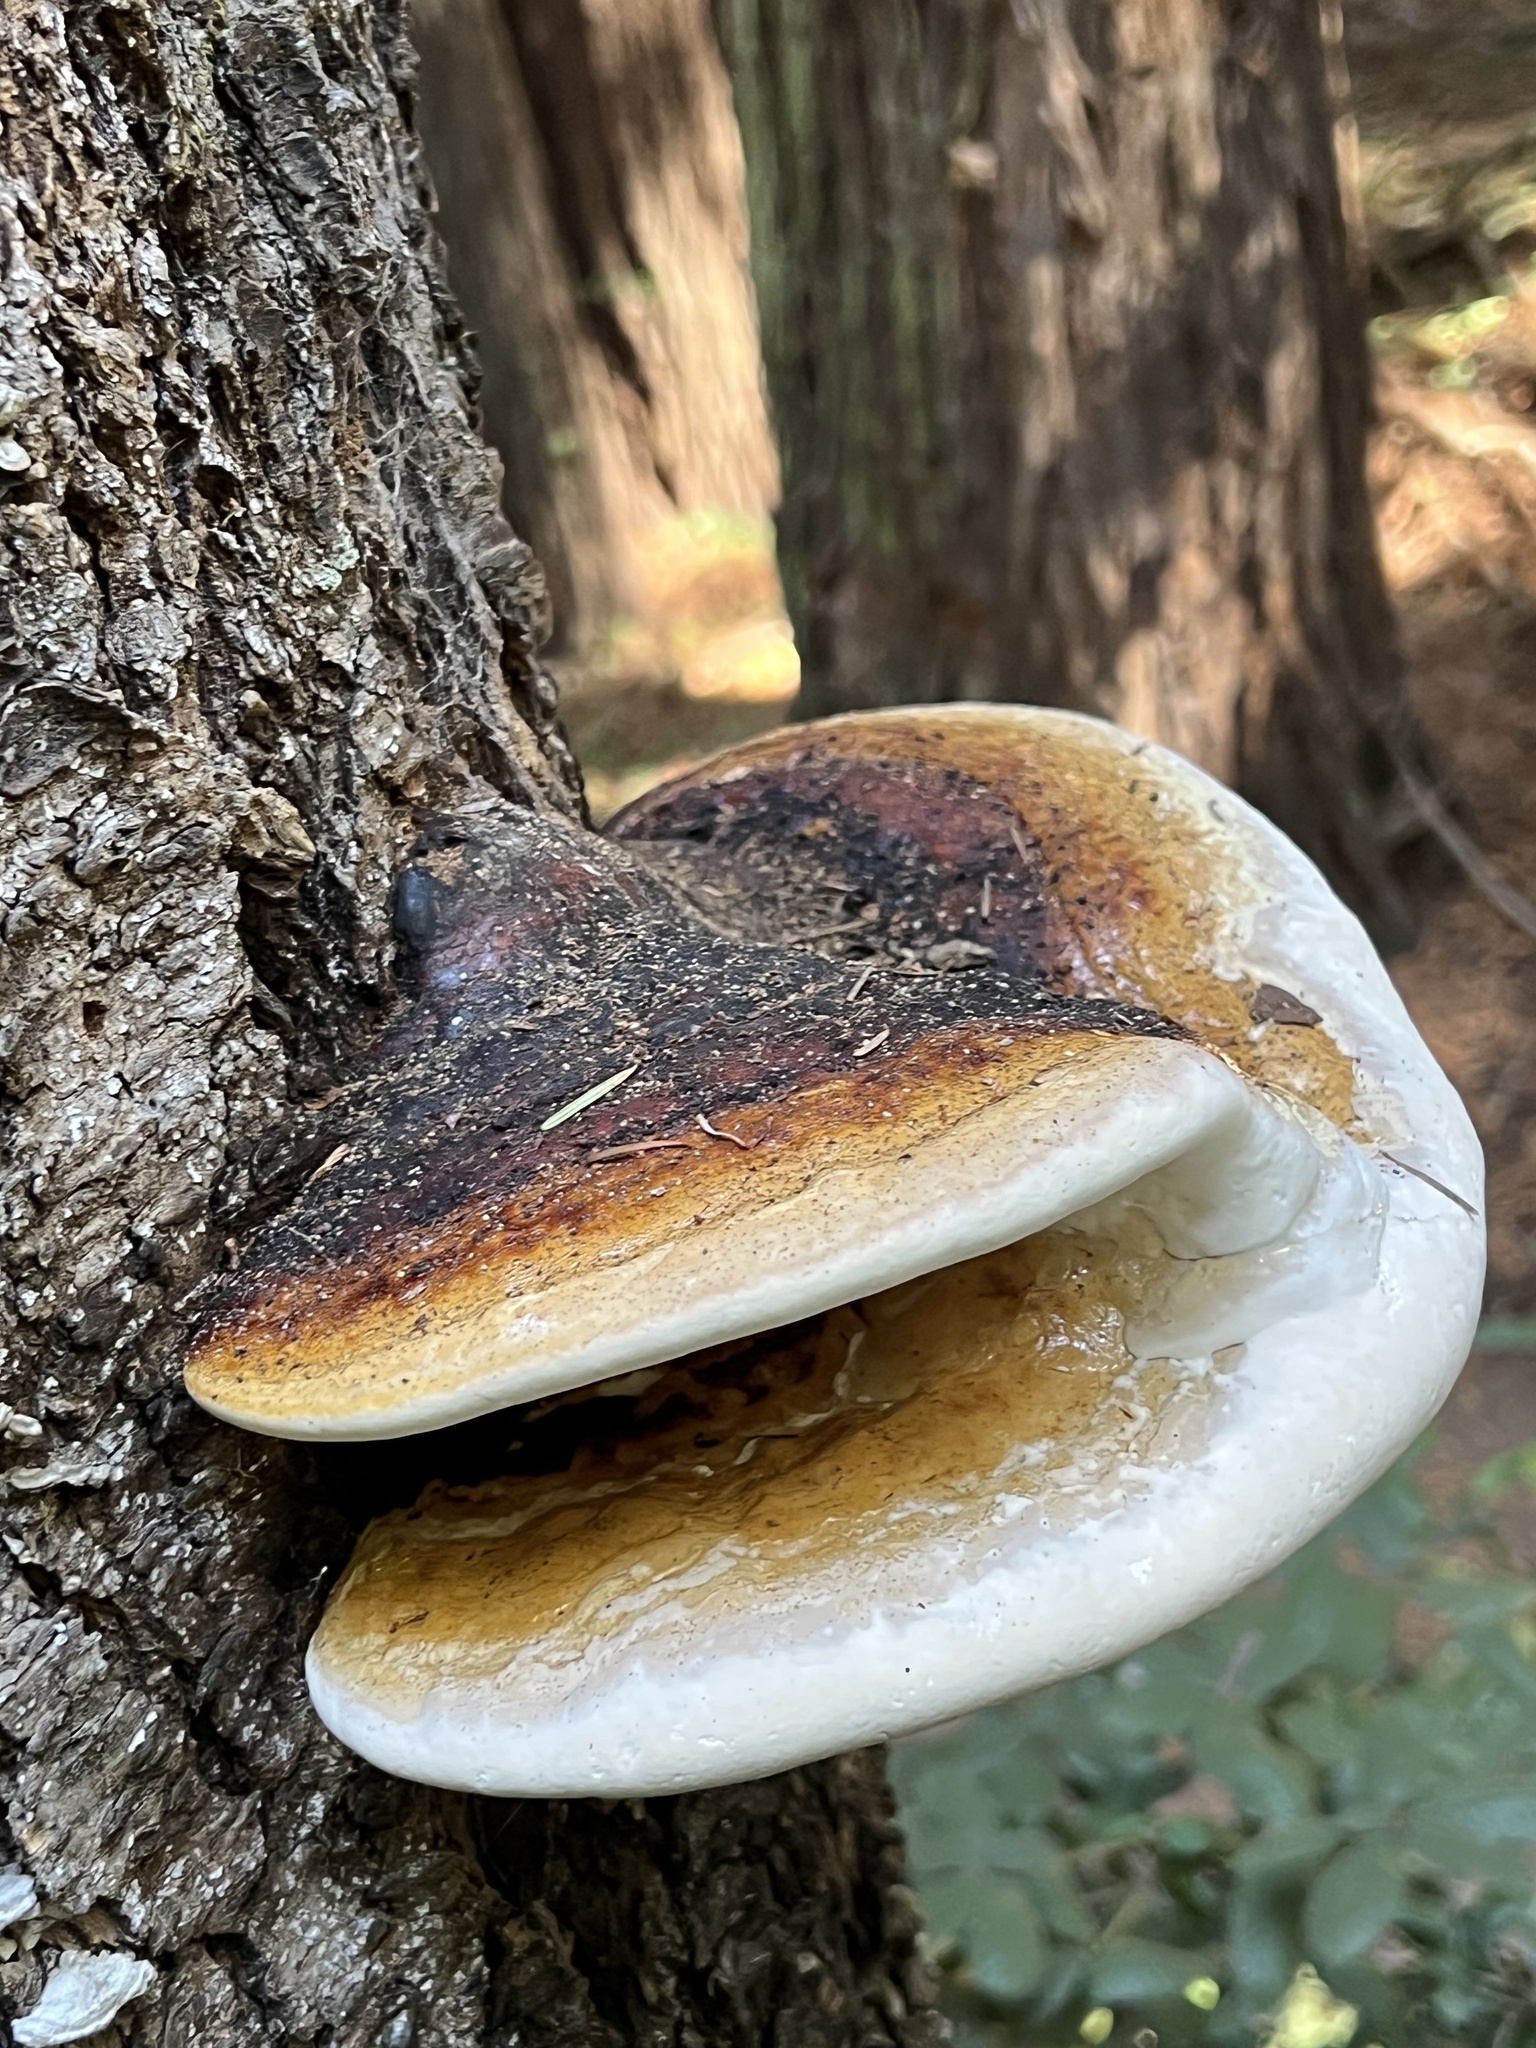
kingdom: Fungi
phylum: Basidiomycota
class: Agaricomycetes
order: Polyporales
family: Fomitopsidaceae
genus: Fomitopsis
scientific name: Fomitopsis mounceae
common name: Northern red belt
